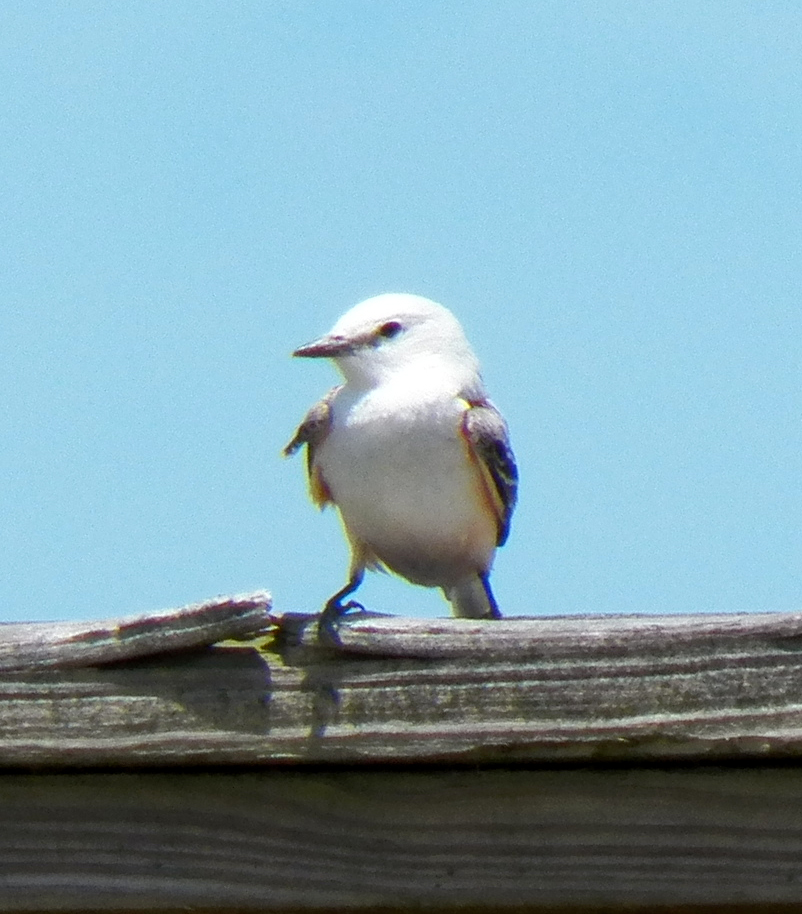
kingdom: Animalia
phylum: Chordata
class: Aves
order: Passeriformes
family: Tyrannidae
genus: Tyrannus
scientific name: Tyrannus forficatus
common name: Scissor-tailed flycatcher
